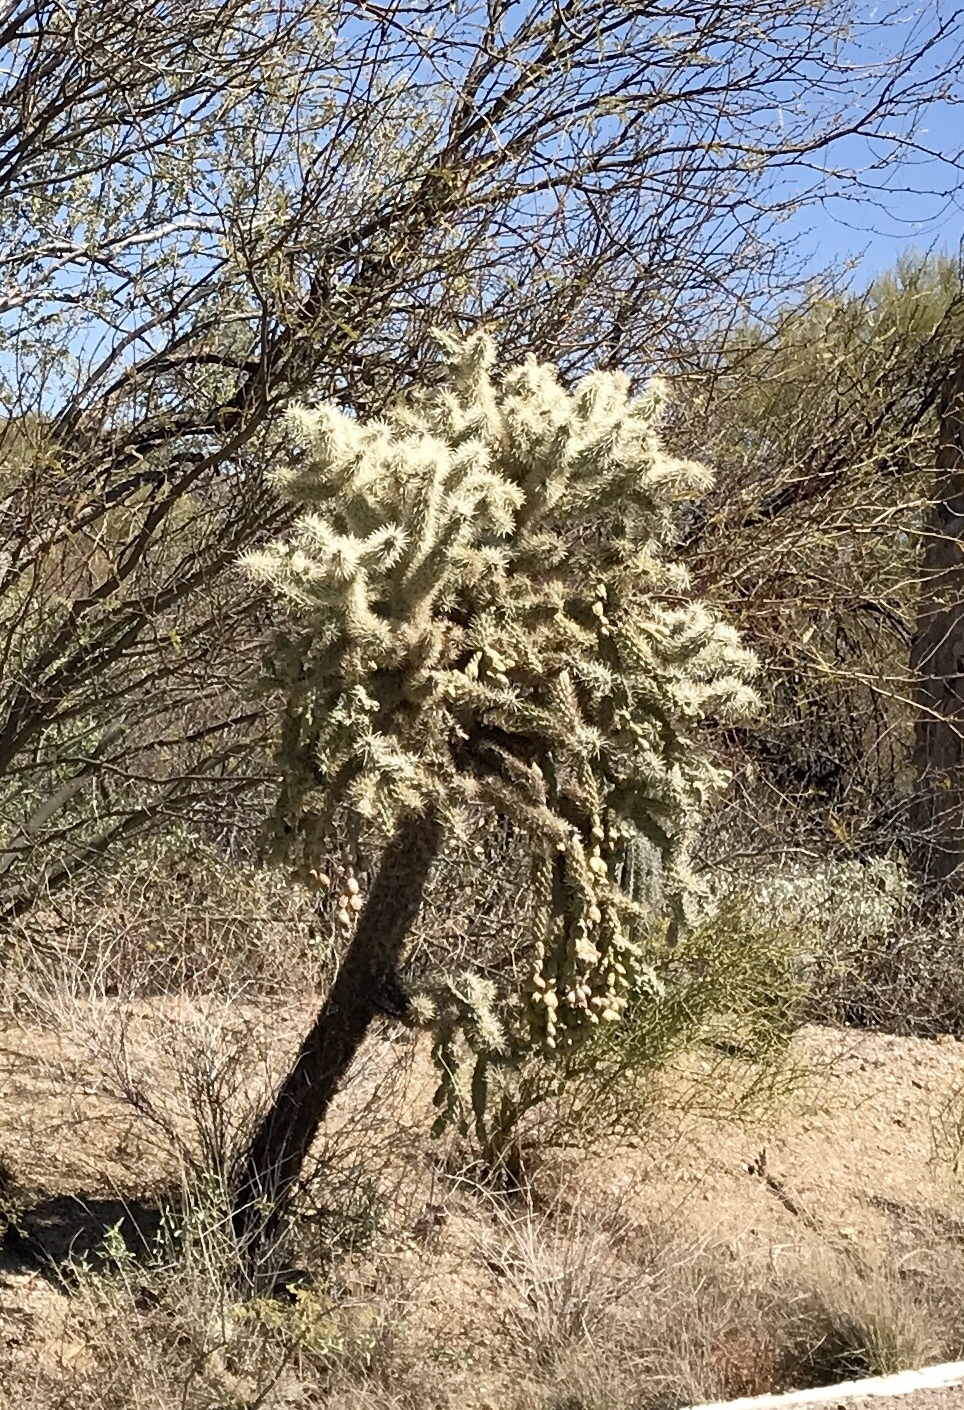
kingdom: Plantae
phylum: Tracheophyta
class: Magnoliopsida
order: Caryophyllales
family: Cactaceae
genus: Cylindropuntia
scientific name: Cylindropuntia fulgida
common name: Jumping cholla
